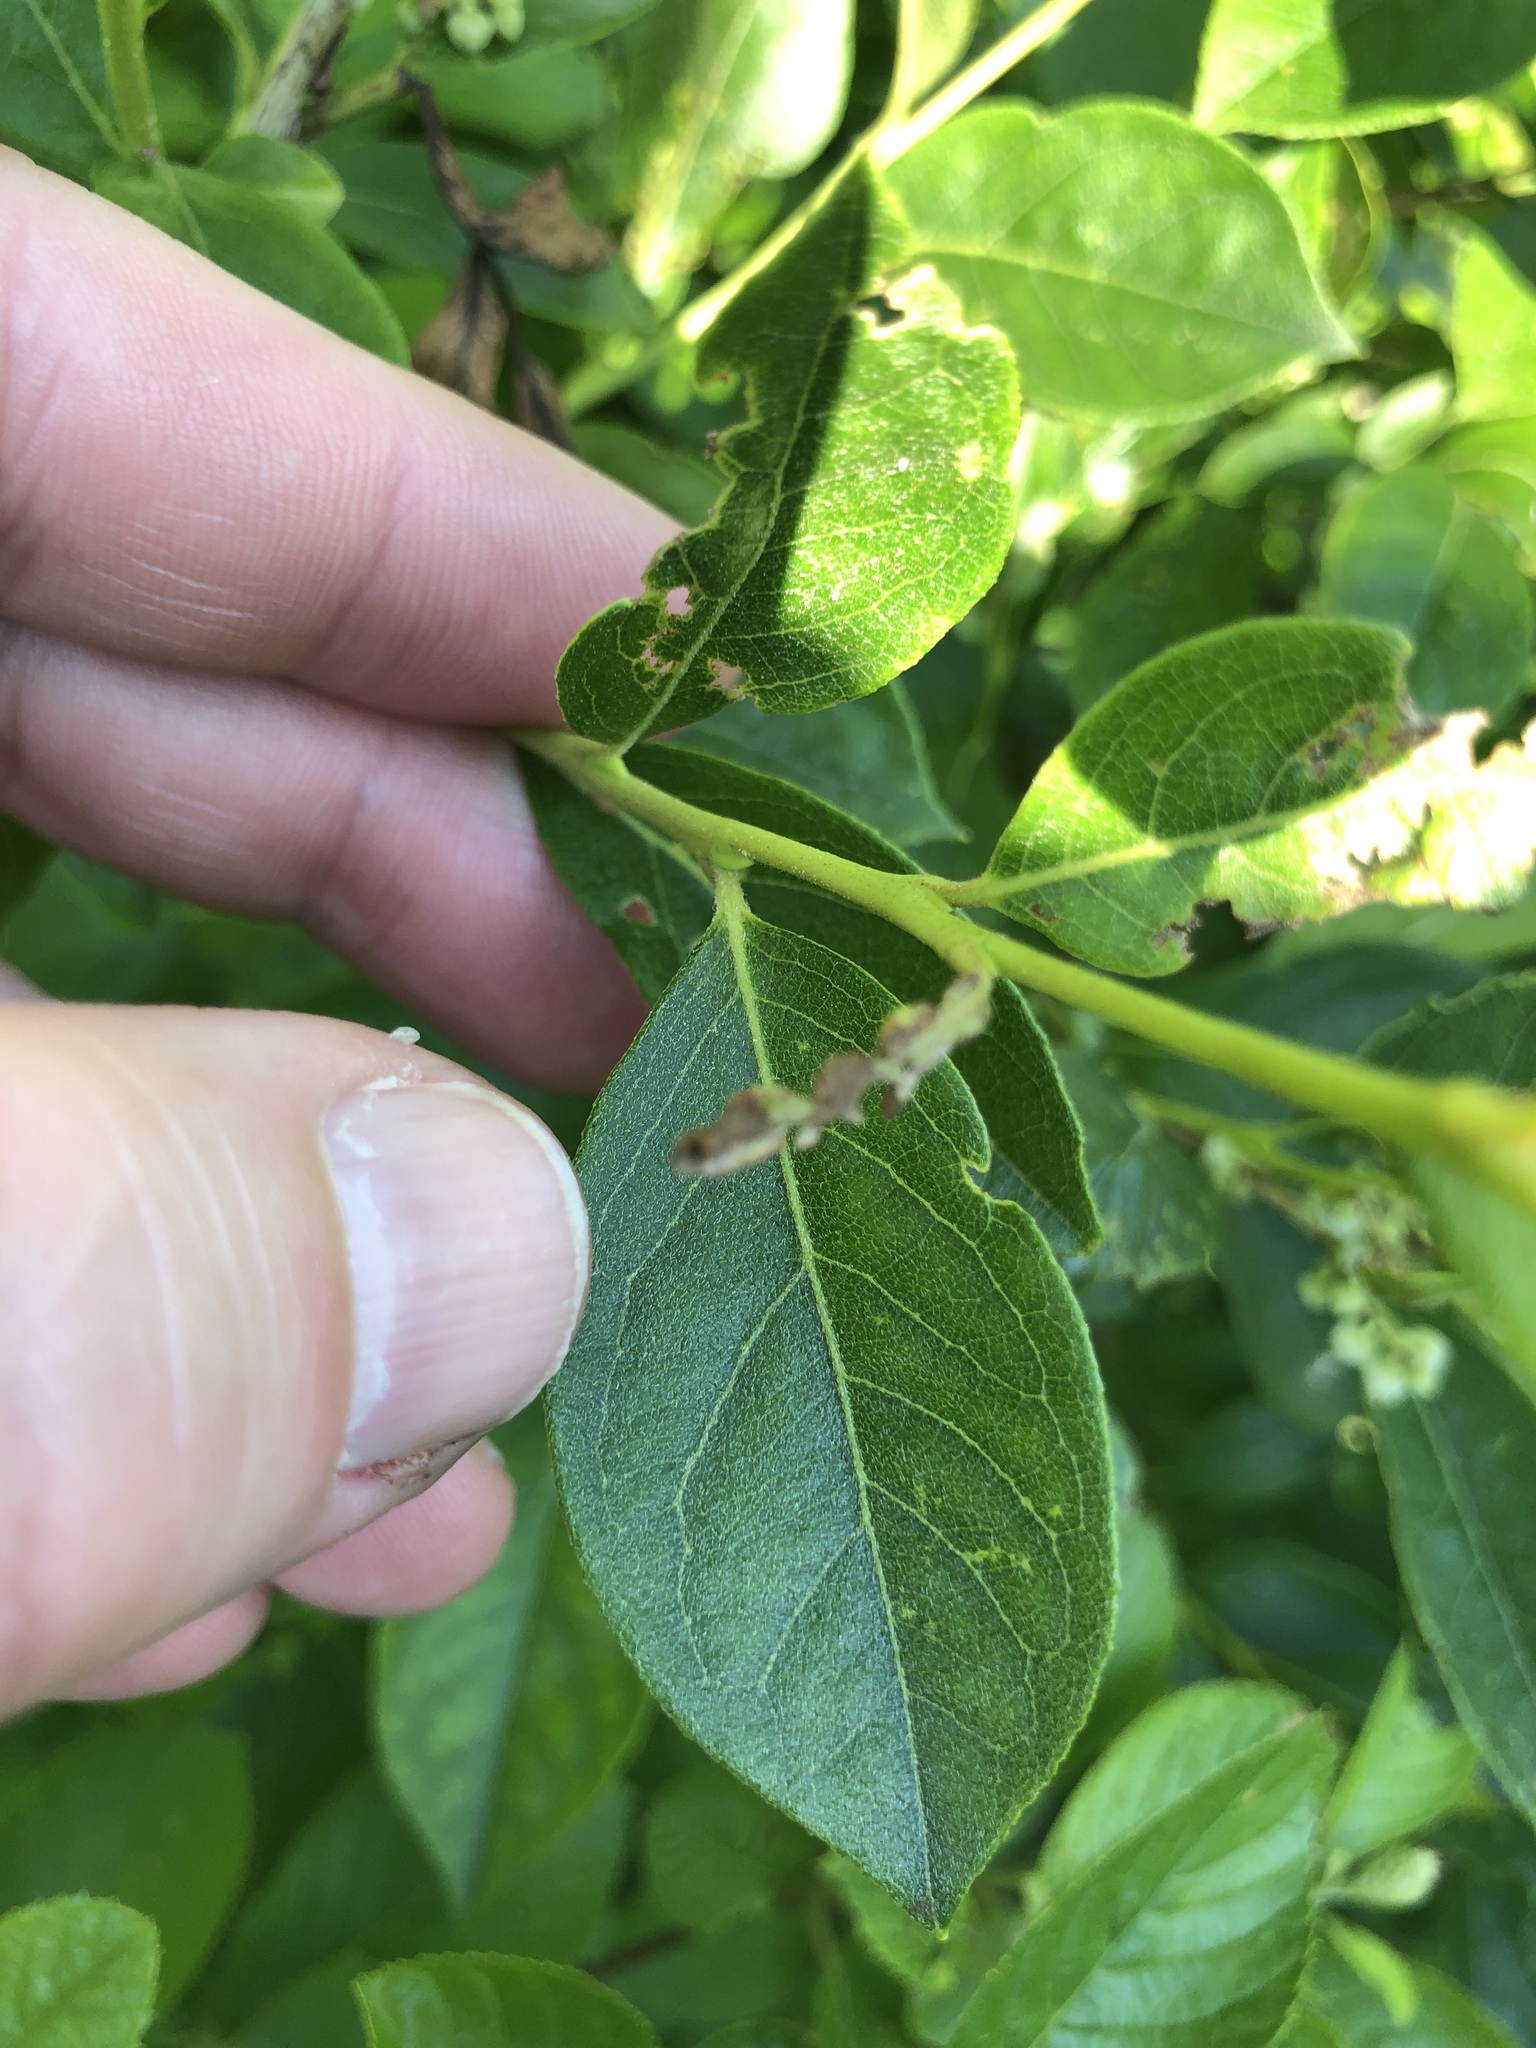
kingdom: Plantae
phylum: Tracheophyta
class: Magnoliopsida
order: Ericales
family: Ericaceae
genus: Lyonia
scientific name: Lyonia ligustrina
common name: Maleberry
